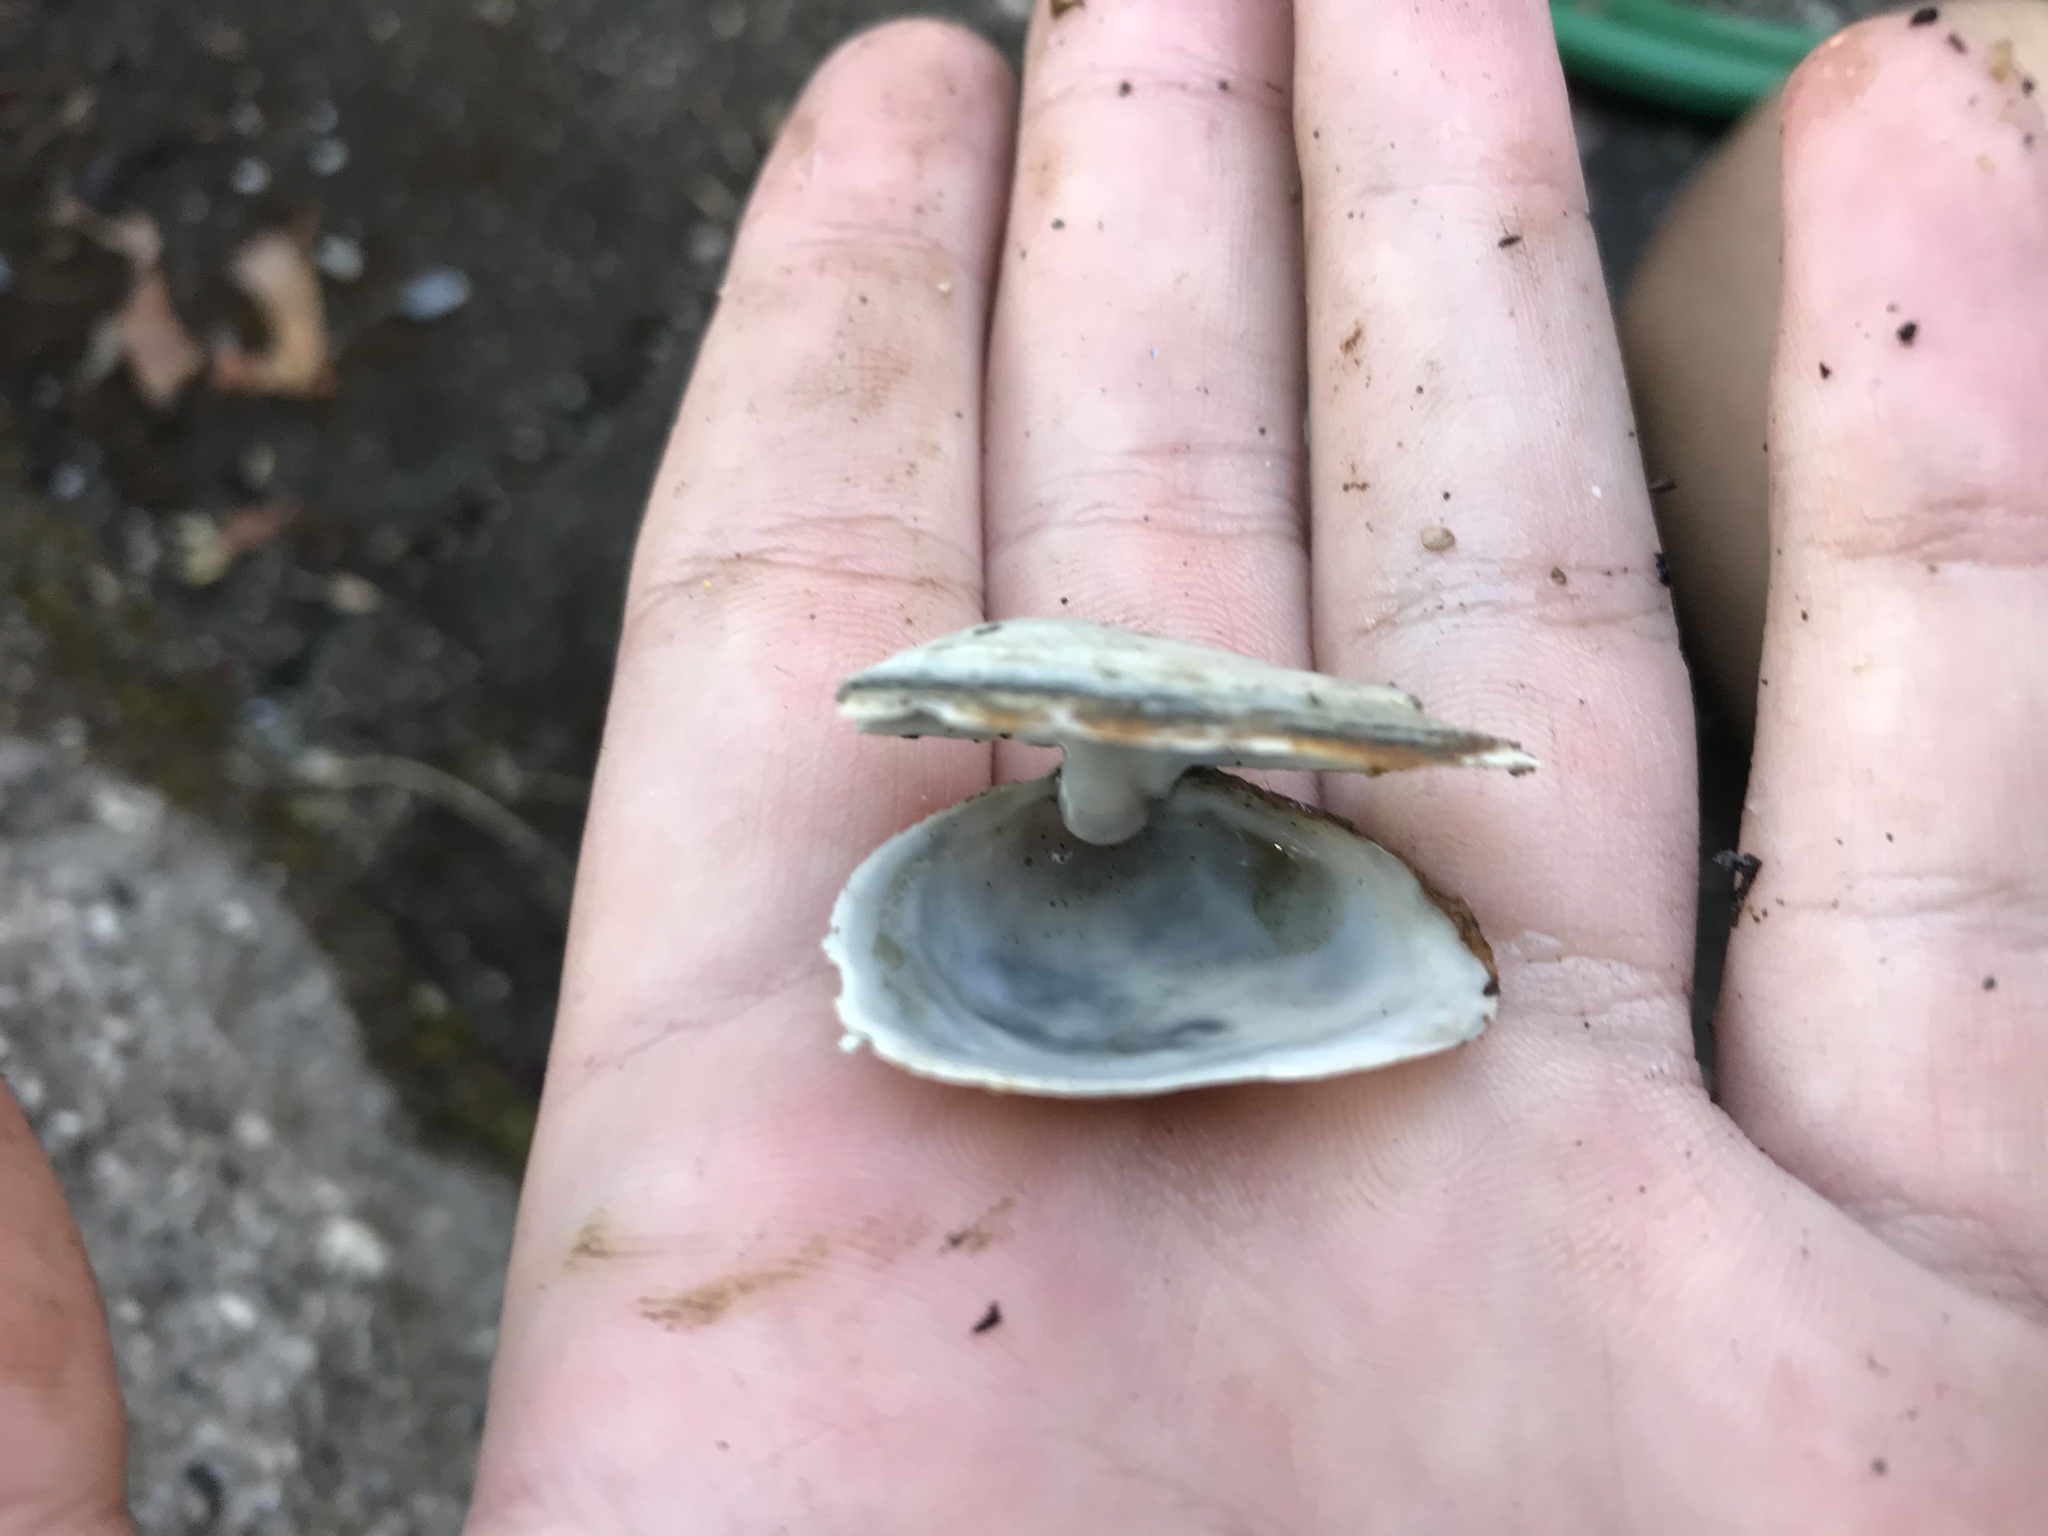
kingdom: Animalia
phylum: Mollusca
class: Bivalvia
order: Myida
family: Myidae
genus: Mya
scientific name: Mya arenaria
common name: Soft-shelled clam
